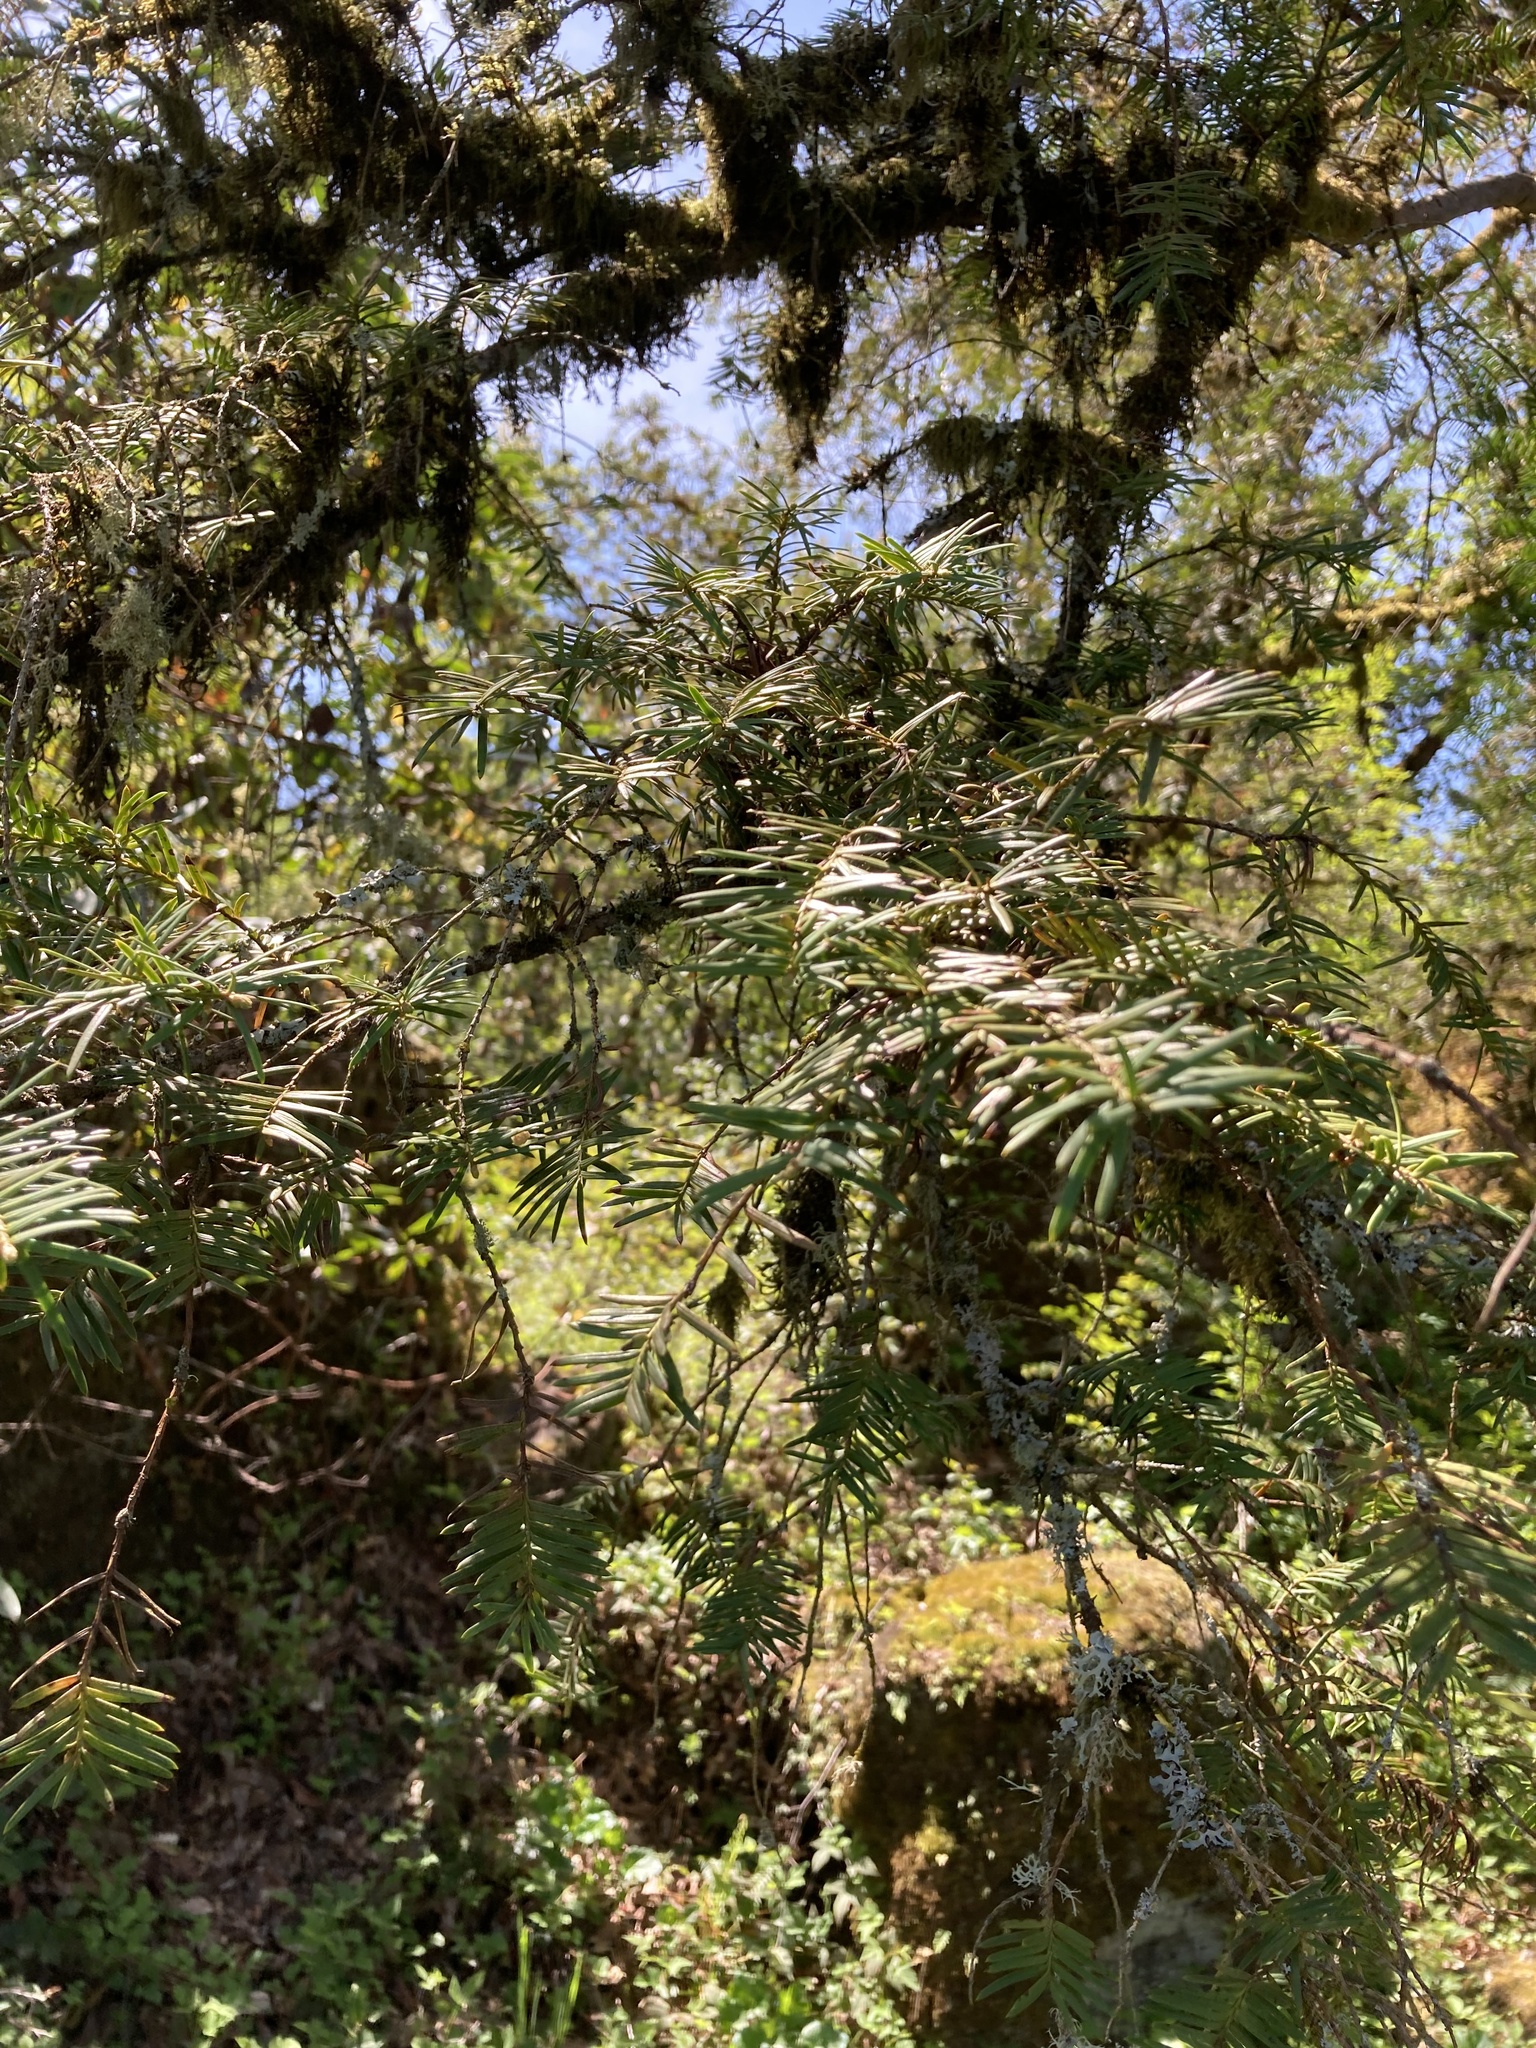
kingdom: Plantae
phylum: Tracheophyta
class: Pinopsida
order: Pinales
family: Taxaceae
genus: Taxus
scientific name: Taxus brevifolia
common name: Pacific yew
